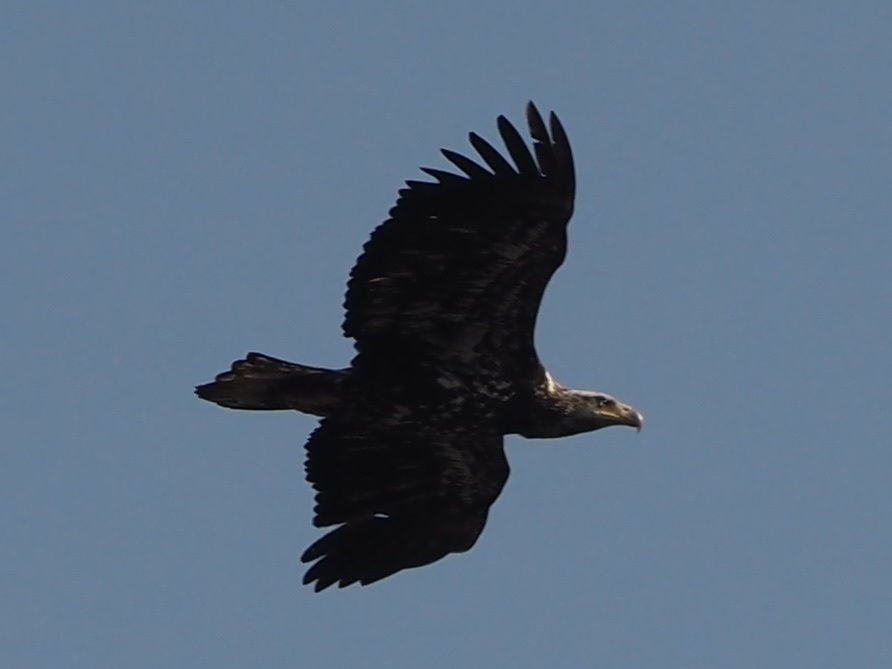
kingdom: Animalia
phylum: Chordata
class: Aves
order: Accipitriformes
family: Accipitridae
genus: Haliaeetus
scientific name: Haliaeetus leucocephalus
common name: Bald eagle
